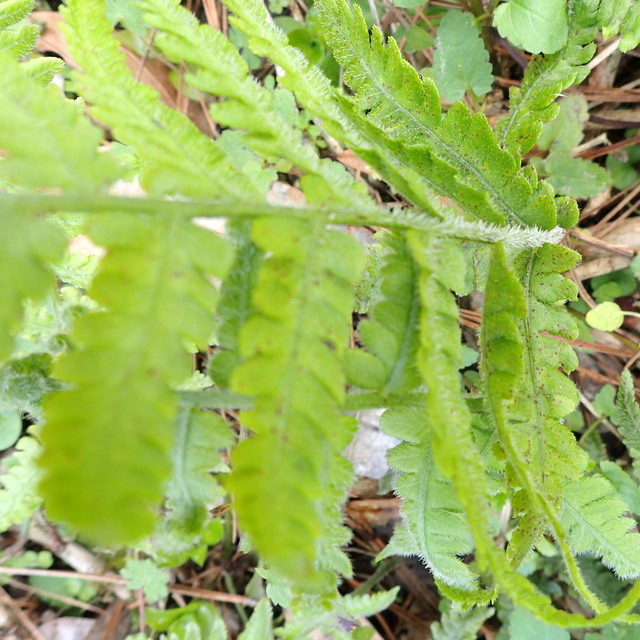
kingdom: Plantae
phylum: Tracheophyta
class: Polypodiopsida
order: Polypodiales
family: Athyriaceae
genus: Deparia
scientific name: Deparia petersenii
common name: Japanese false spleenwort
